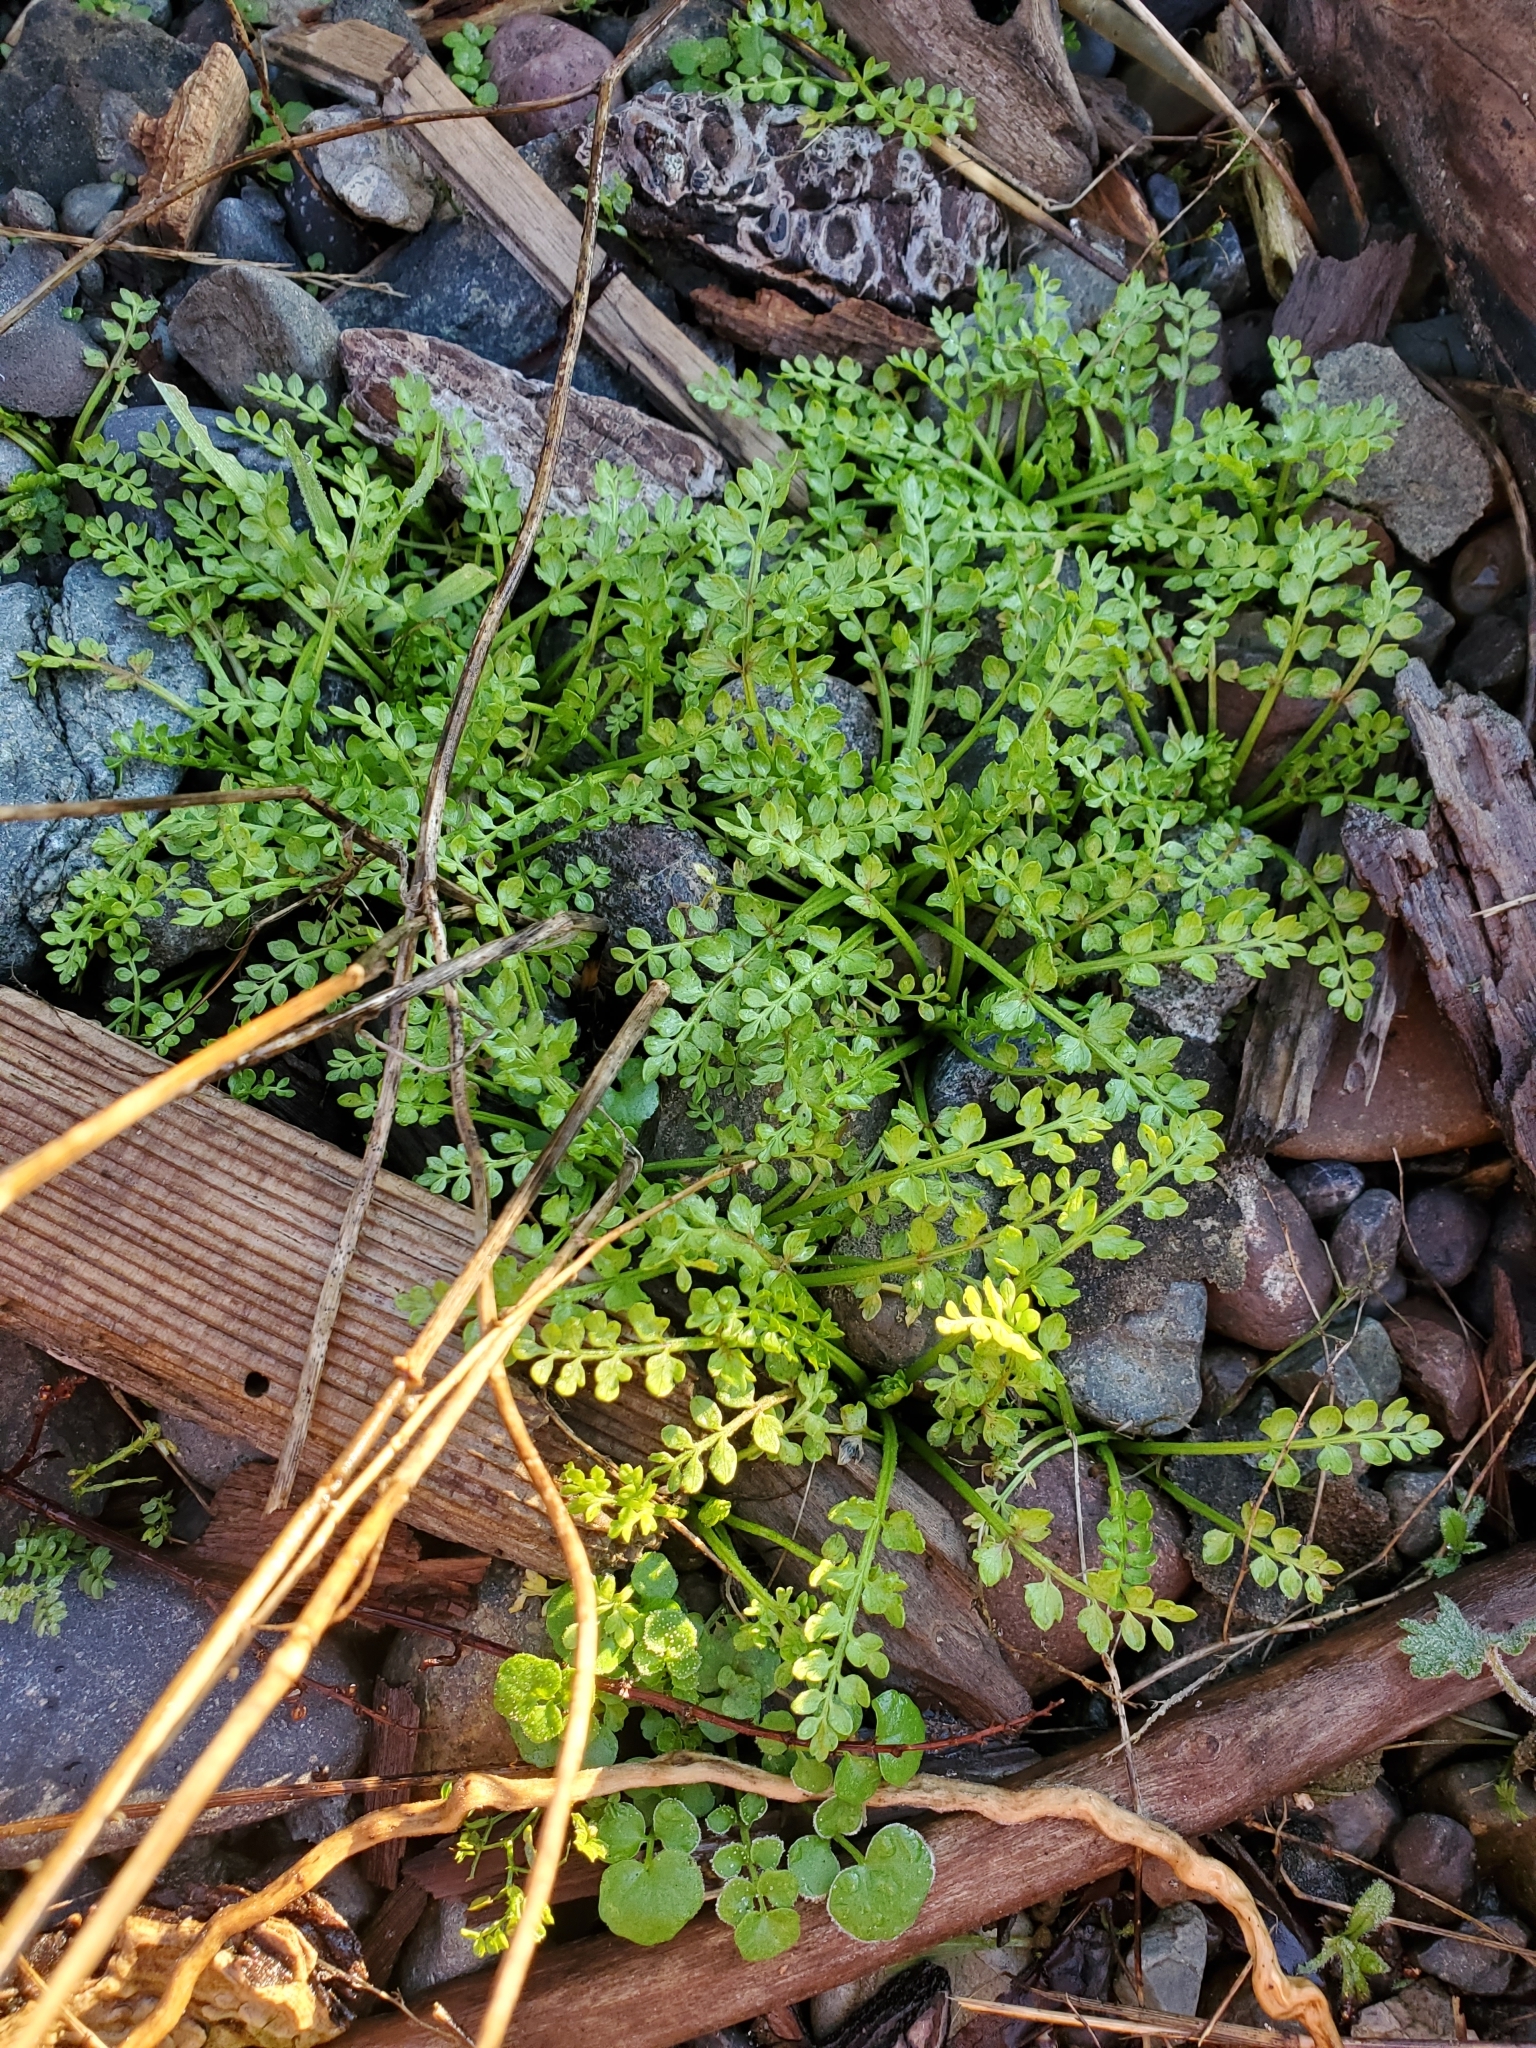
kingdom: Plantae
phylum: Tracheophyta
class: Magnoliopsida
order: Brassicales
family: Limnanthaceae
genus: Limnanthes
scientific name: Limnanthes macounii
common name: Macoun's meadowfoam
